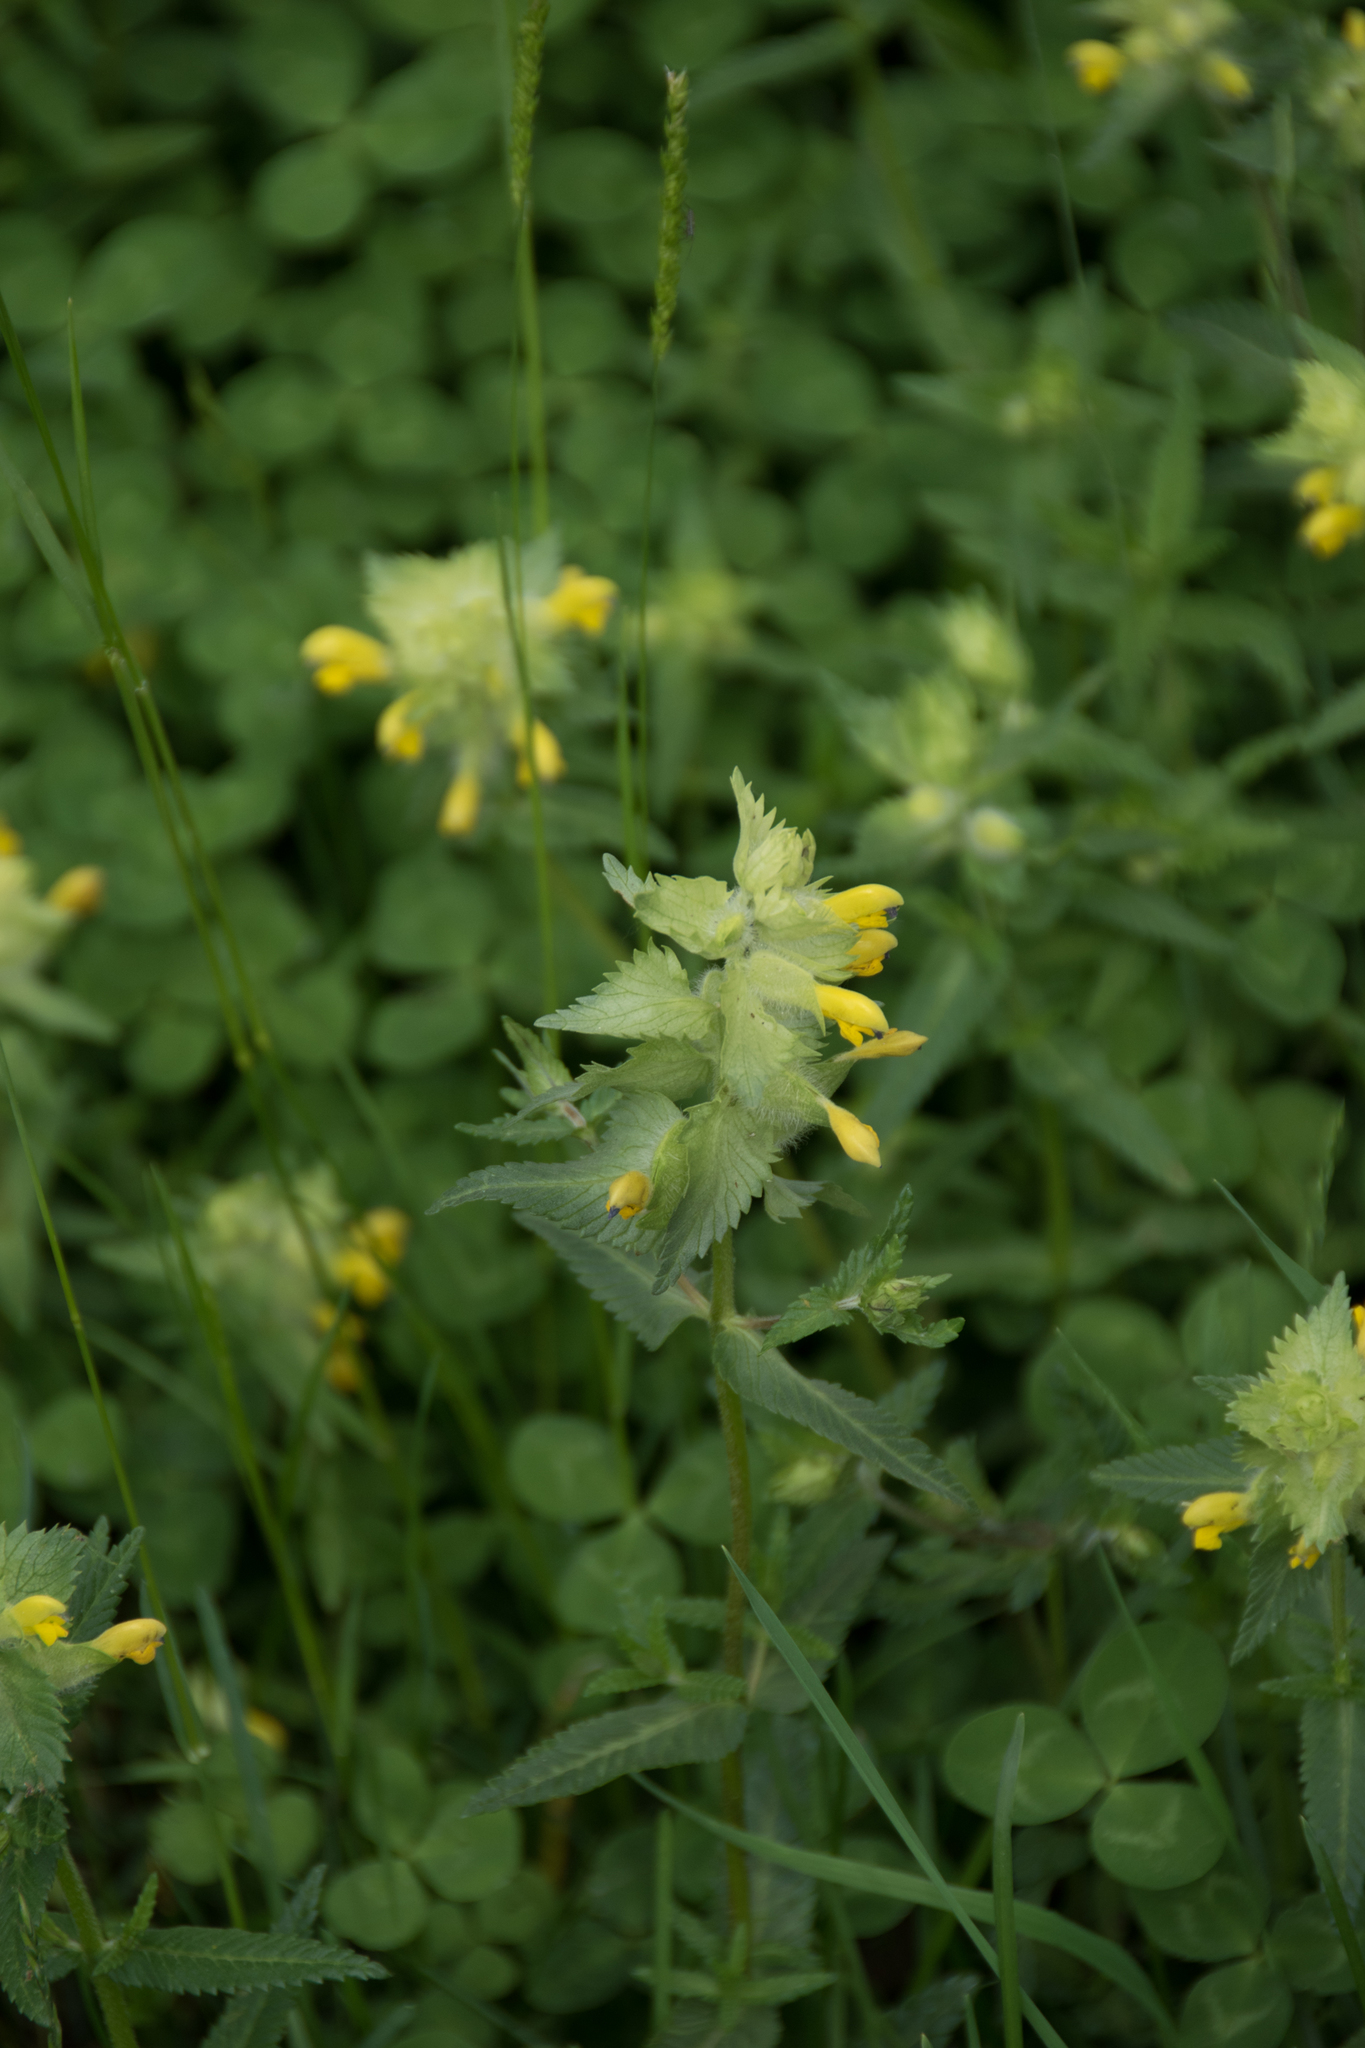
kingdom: Plantae
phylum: Tracheophyta
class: Magnoliopsida
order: Lamiales
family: Orobanchaceae
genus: Rhinanthus
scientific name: Rhinanthus alectorolophus
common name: Greater yellow-rattle
